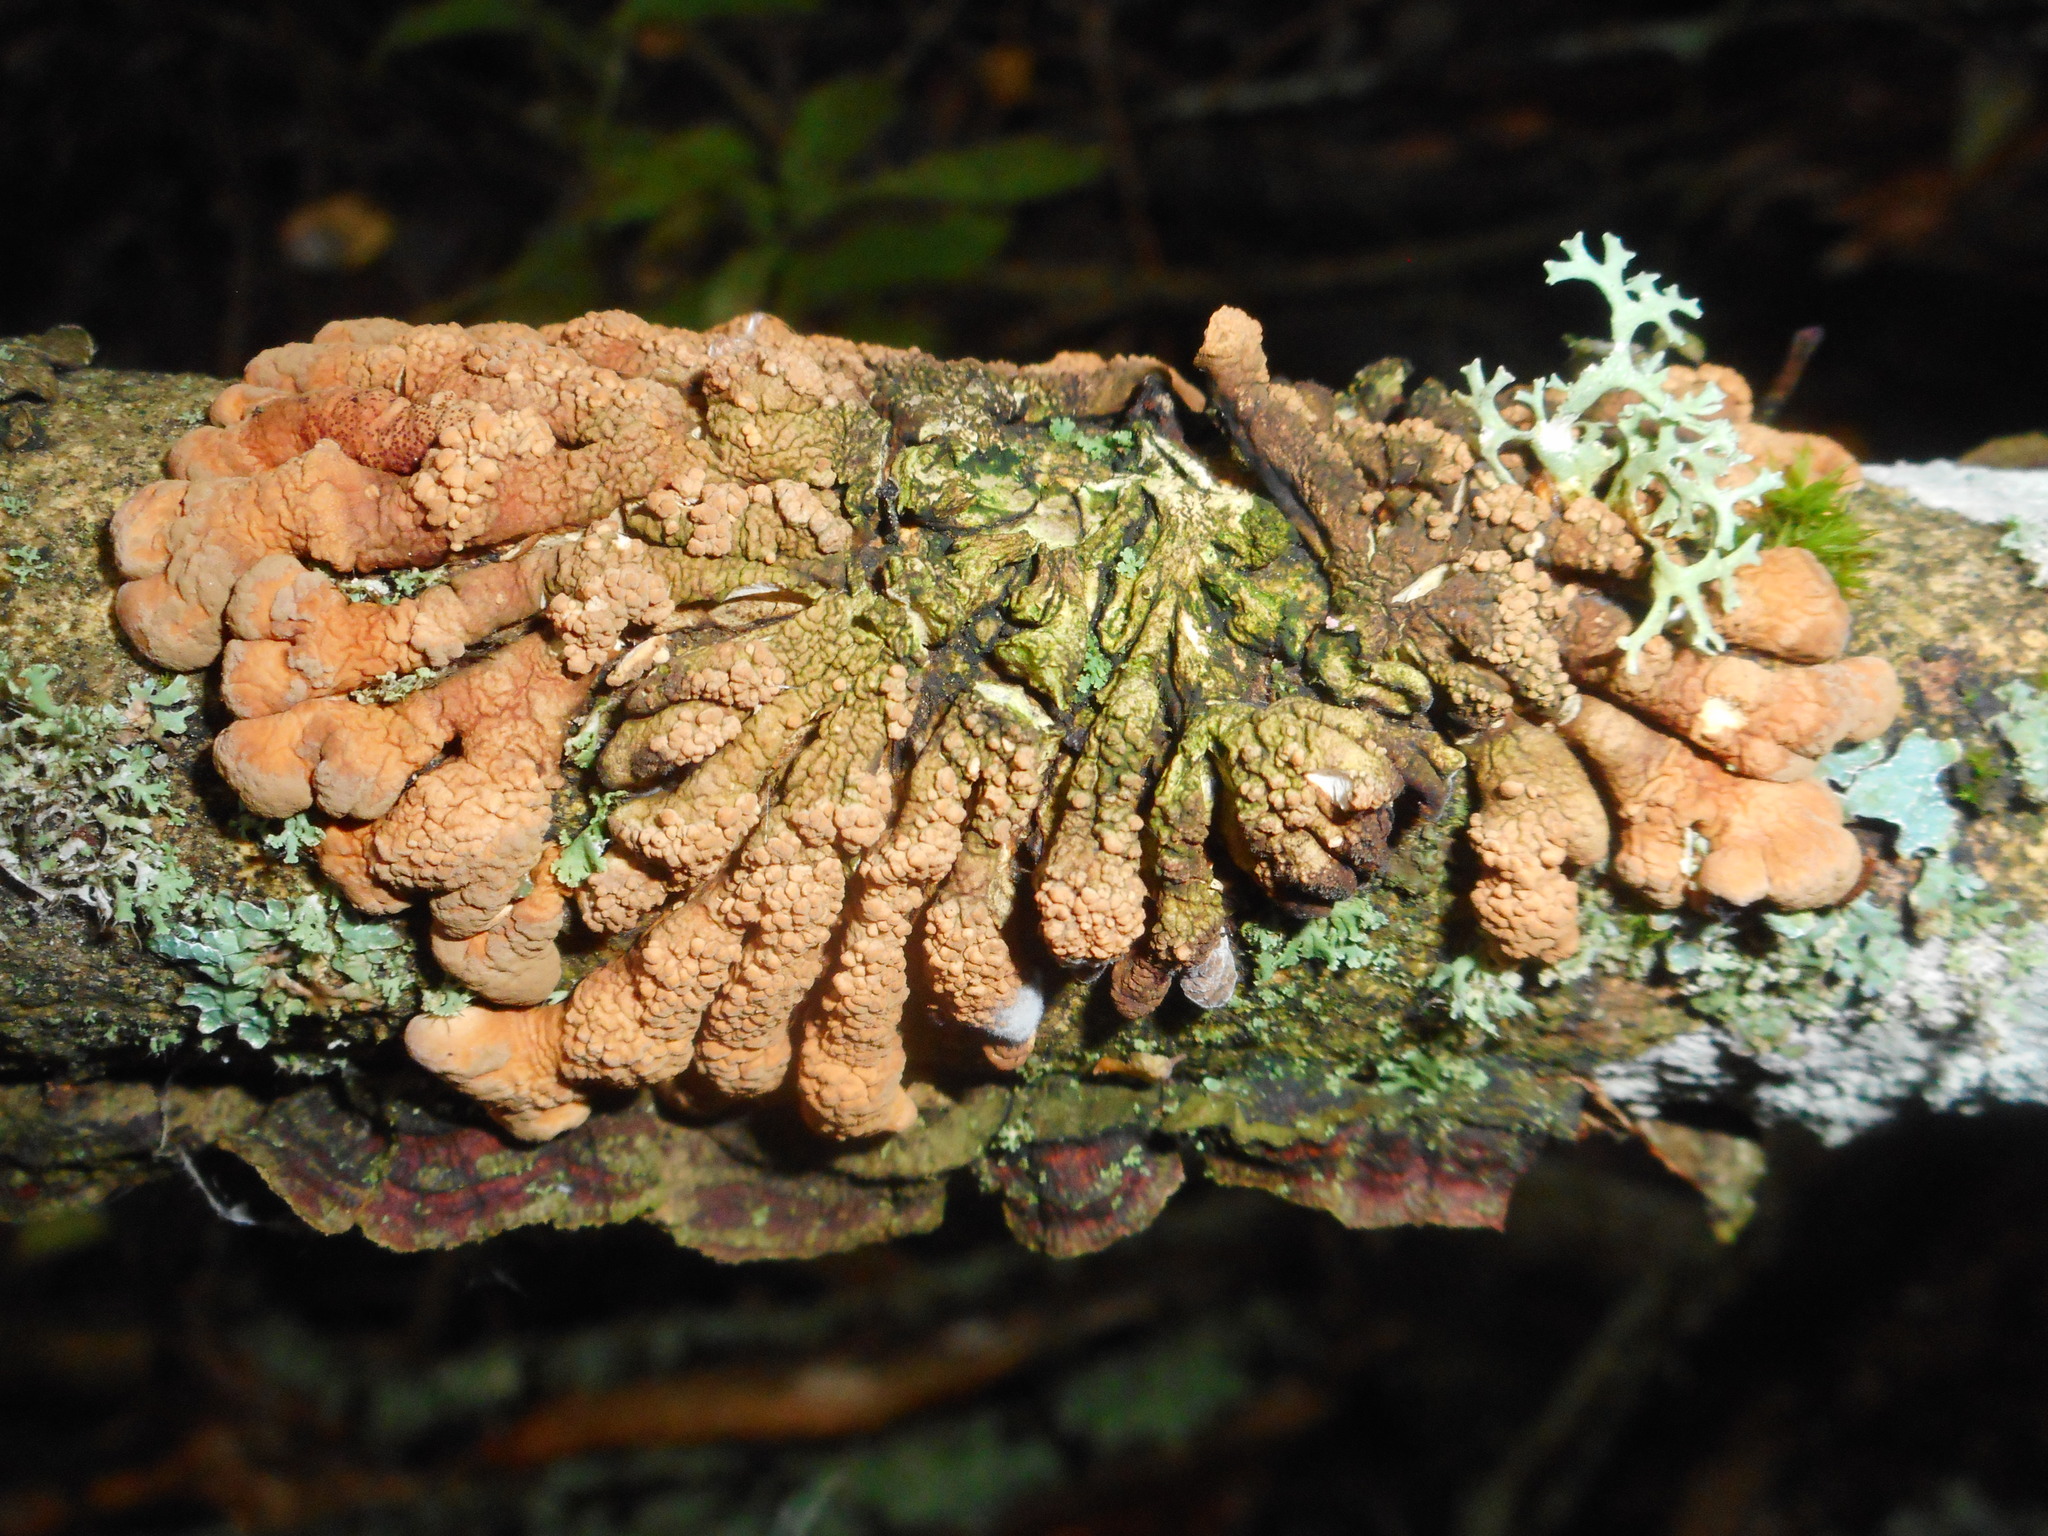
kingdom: Fungi
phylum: Ascomycota
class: Sordariomycetes
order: Hypocreales
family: Hypocreaceae
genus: Hypocreopsis
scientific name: Hypocreopsis lichenoides
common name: Willow gloves
